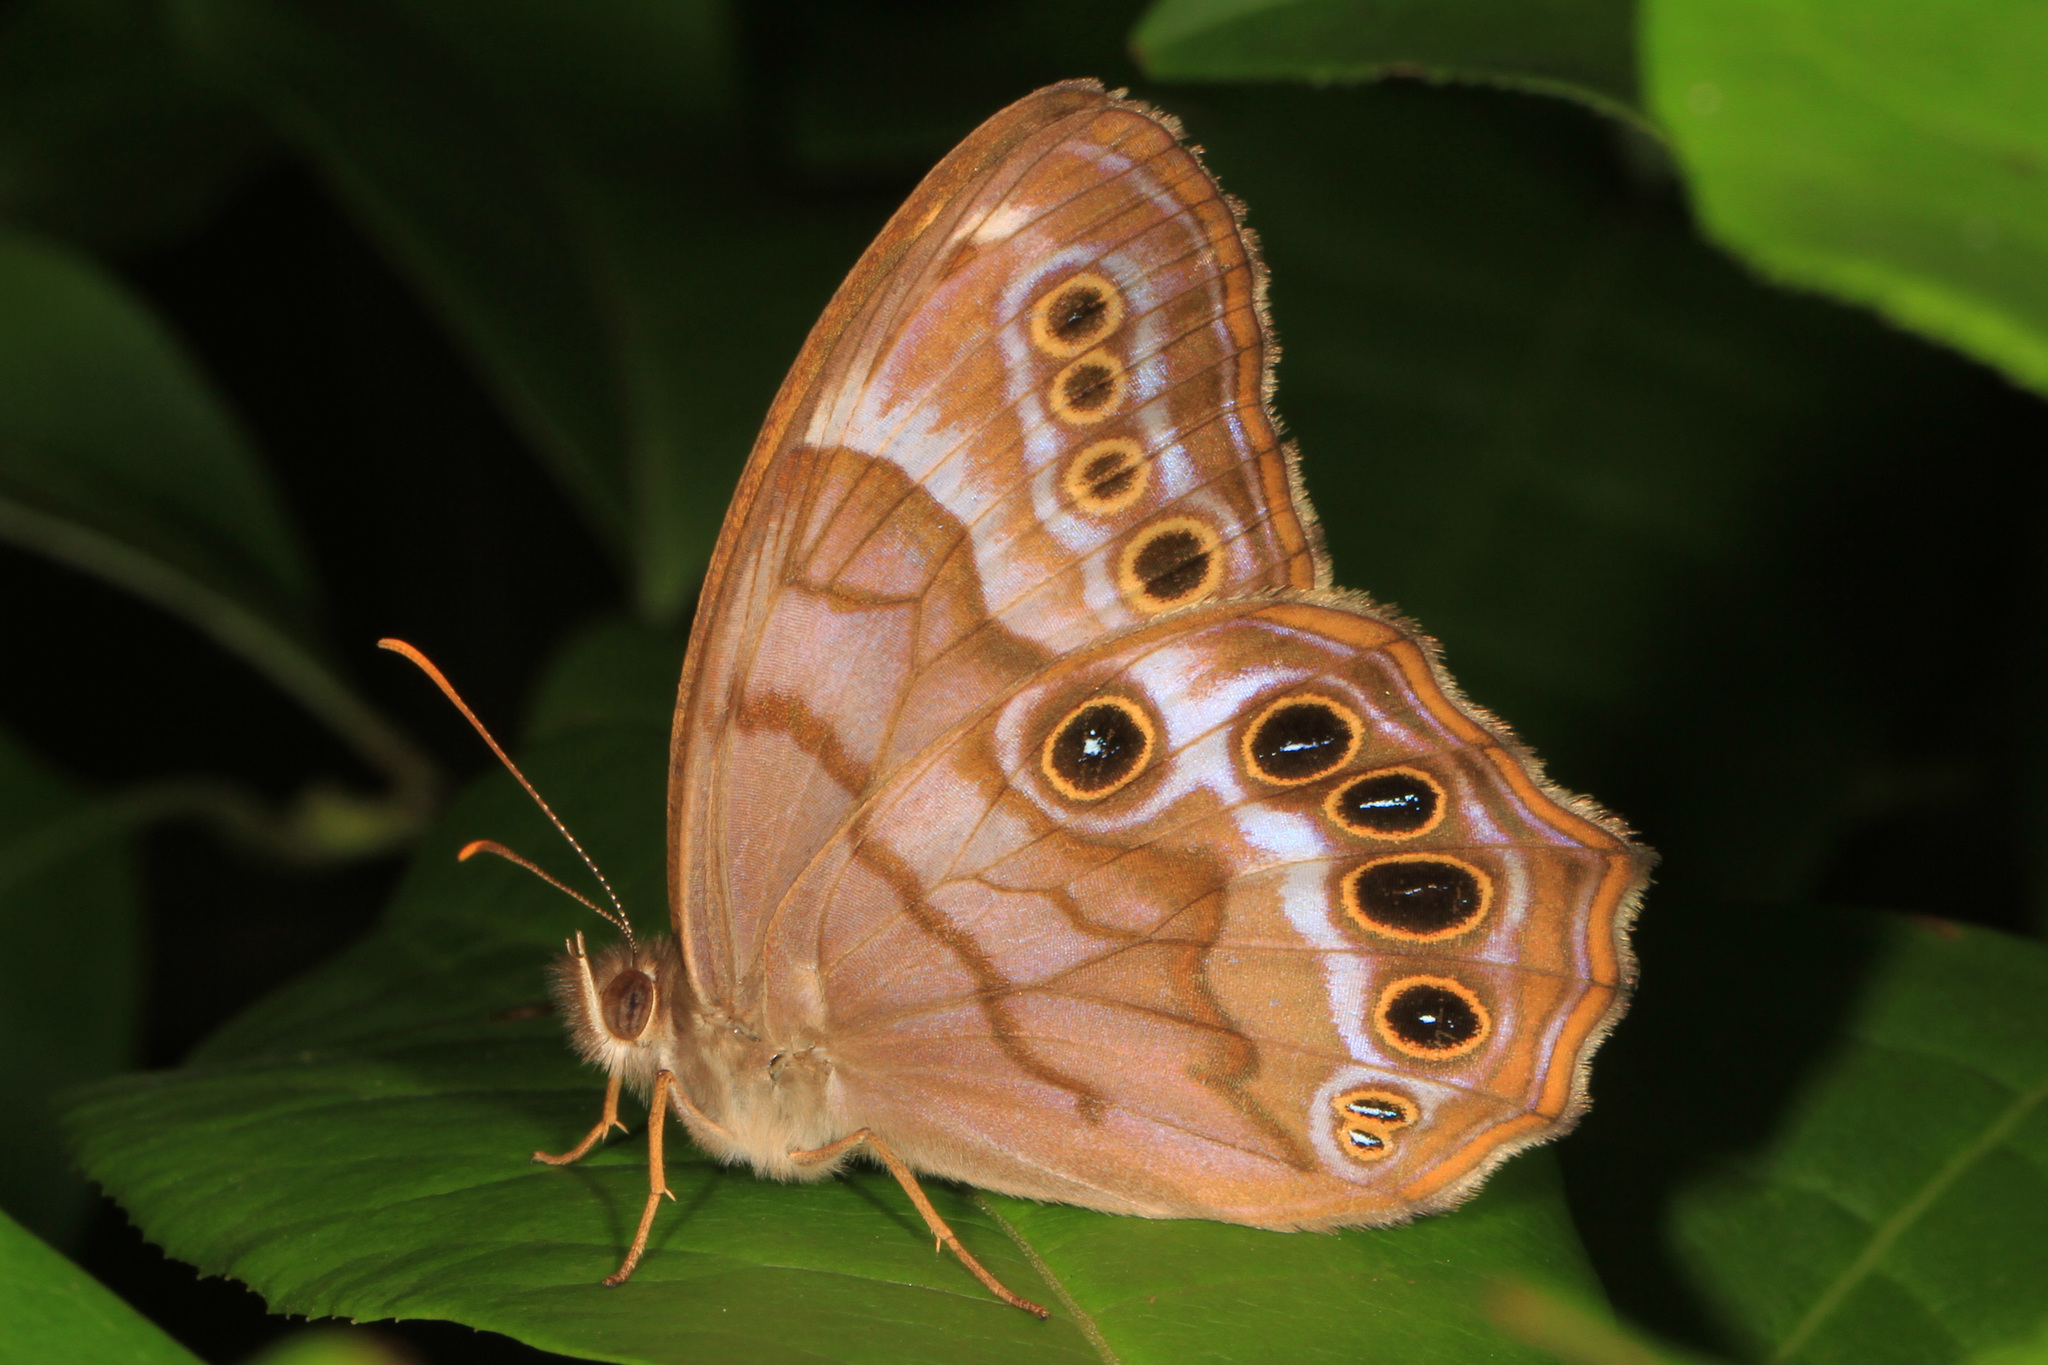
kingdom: Animalia
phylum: Arthropoda
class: Insecta
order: Lepidoptera
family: Nymphalidae
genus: Enodia
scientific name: Enodia portlandia
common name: Southern pearly-eye
